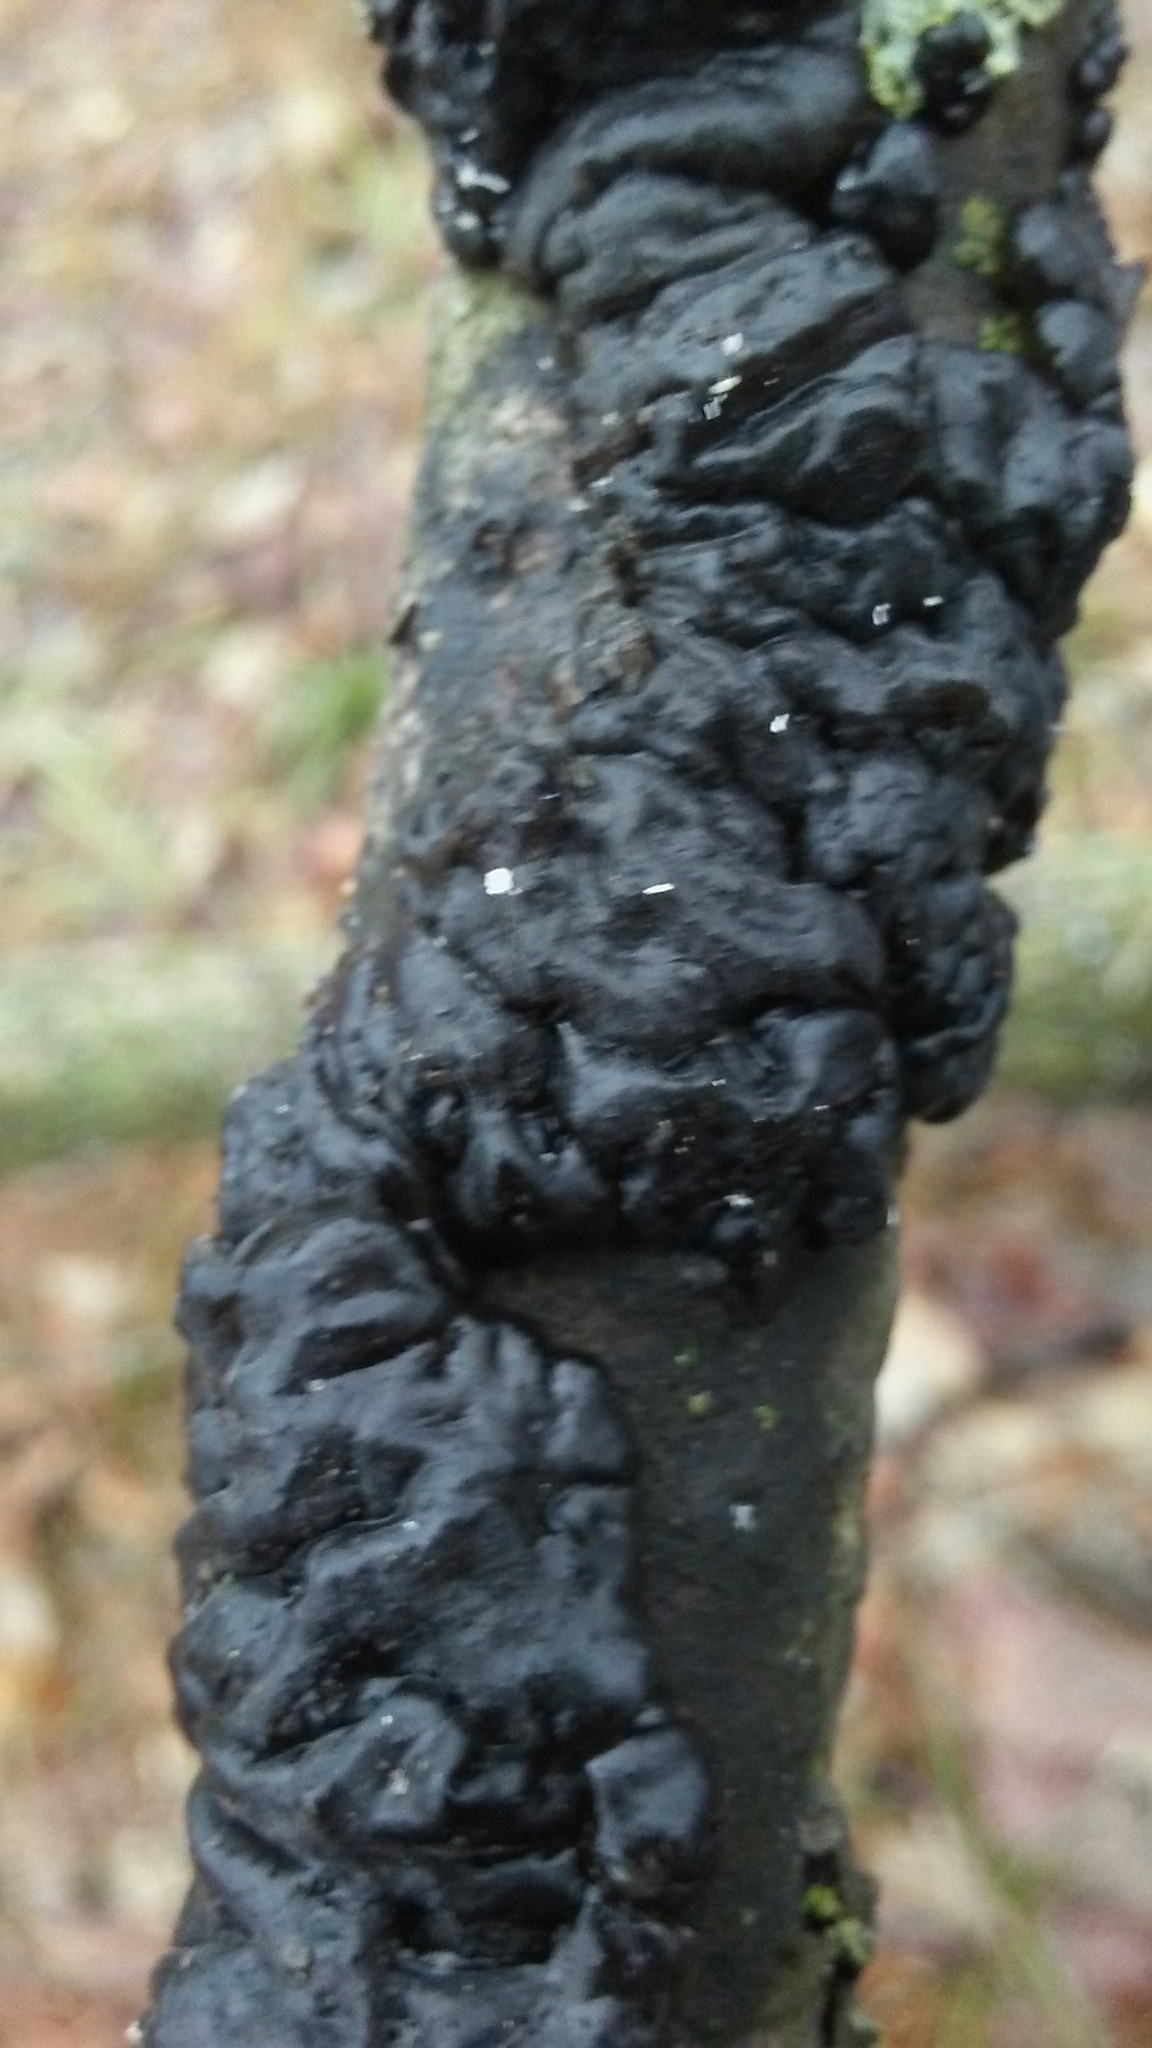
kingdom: Fungi
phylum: Basidiomycota
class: Agaricomycetes
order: Auriculariales
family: Auriculariaceae
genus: Exidia
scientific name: Exidia glandulosa
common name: Witches' butter
